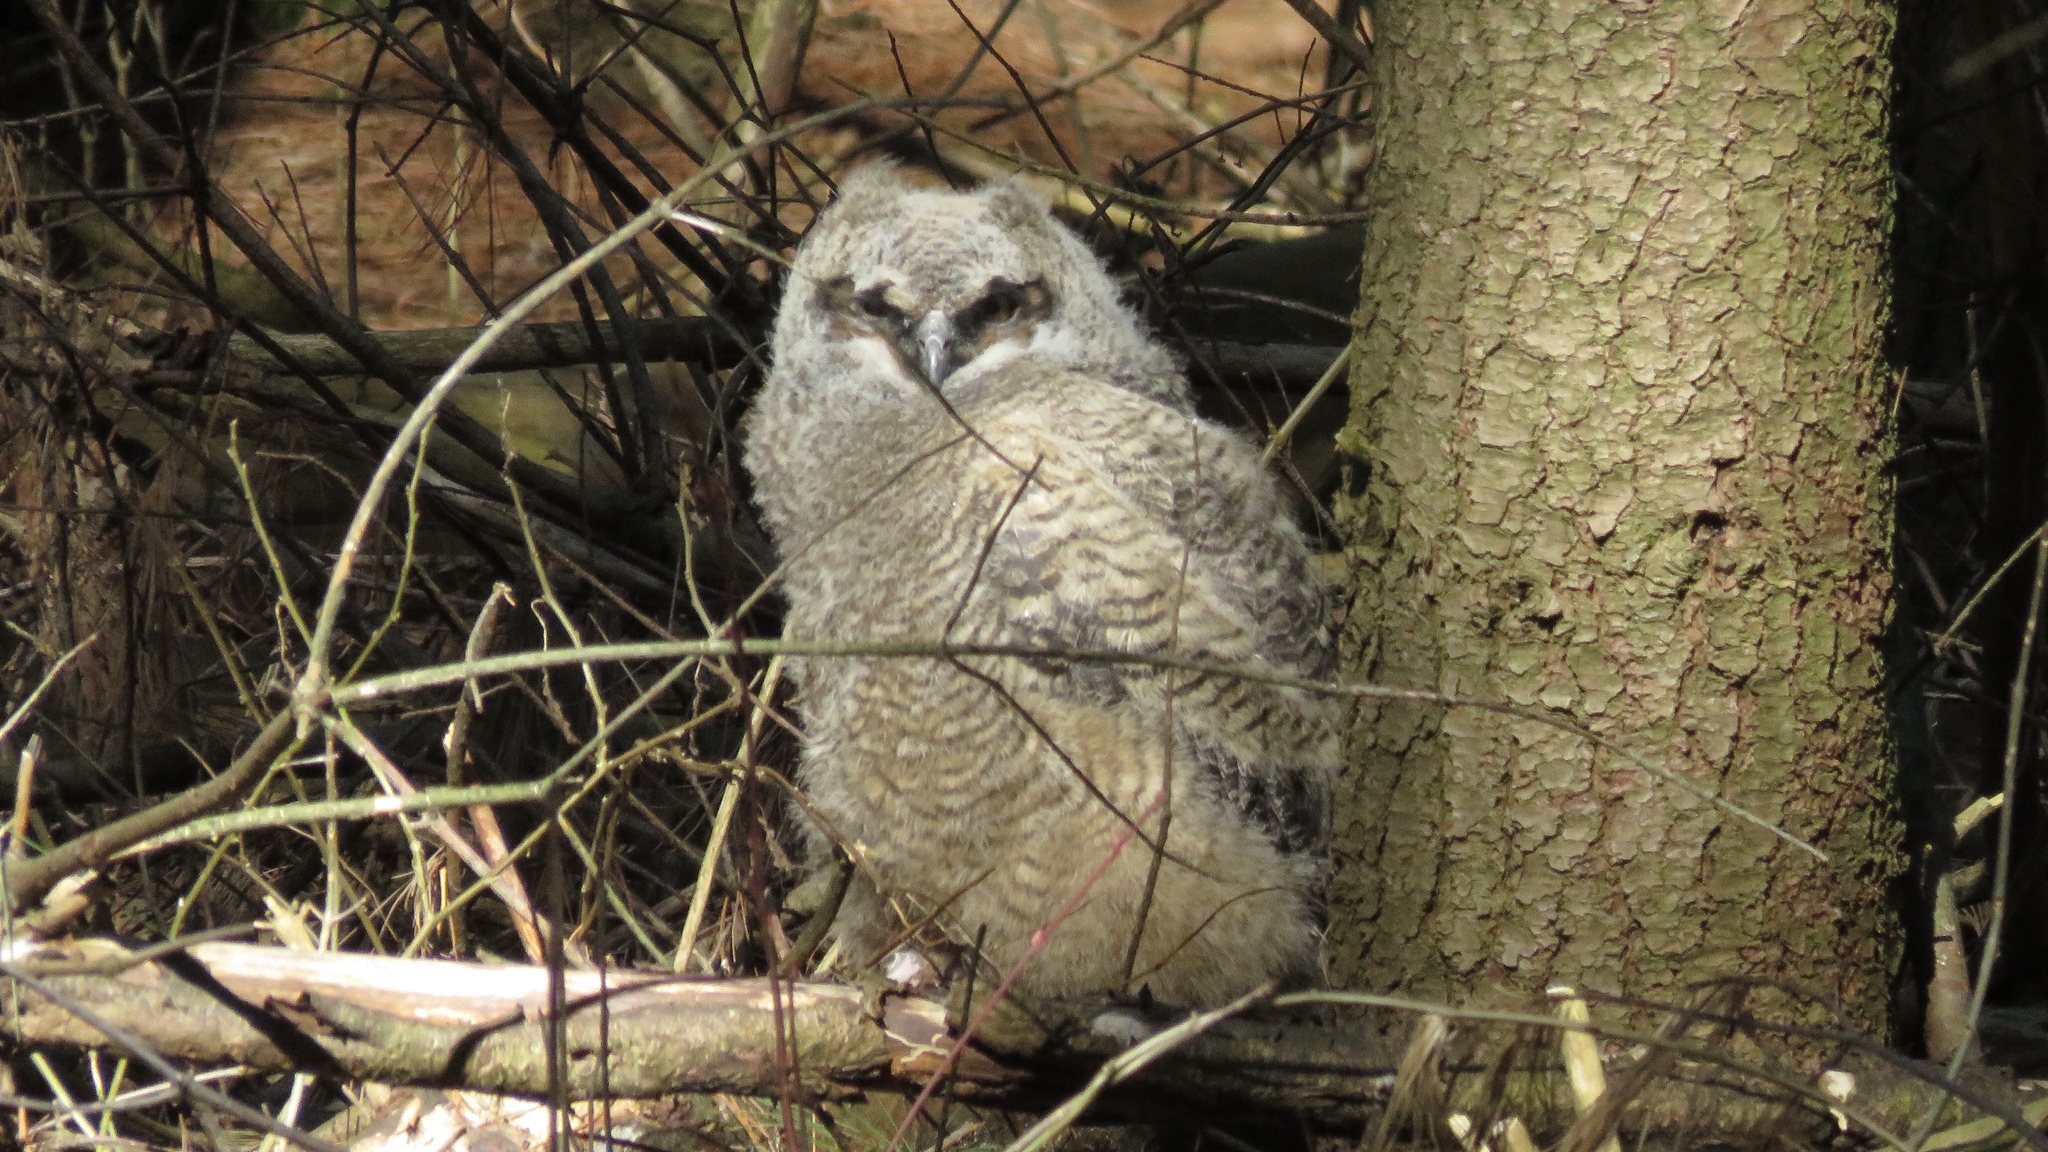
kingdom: Animalia
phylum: Chordata
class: Aves
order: Strigiformes
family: Strigidae
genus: Bubo
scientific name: Bubo virginianus
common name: Great horned owl
